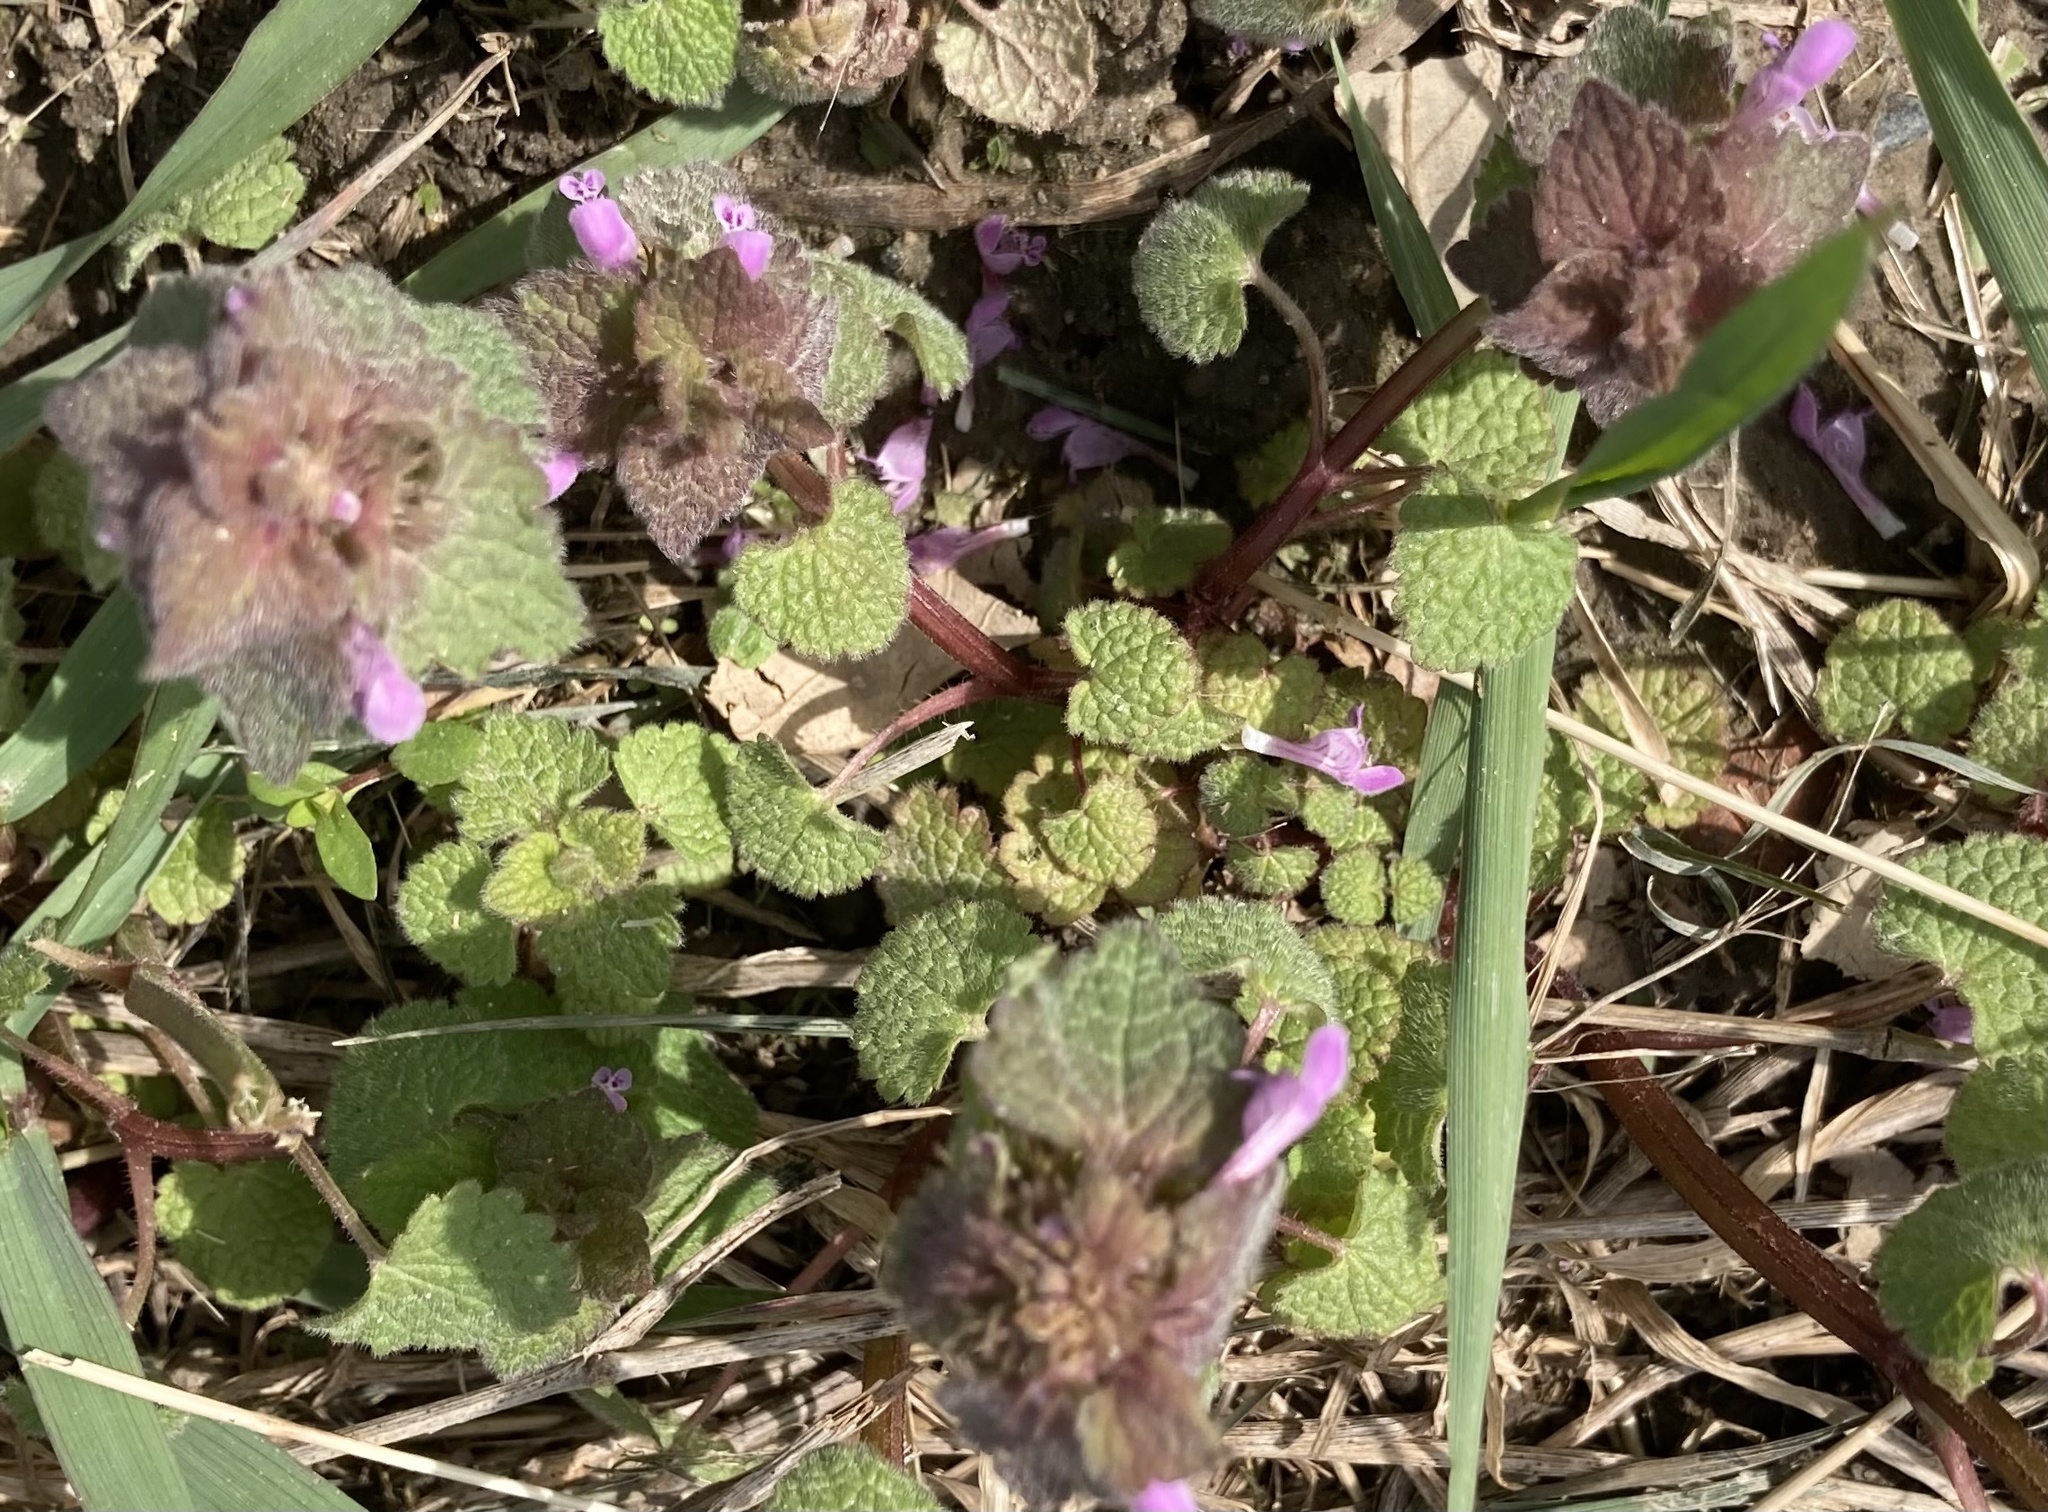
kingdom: Plantae
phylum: Tracheophyta
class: Magnoliopsida
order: Lamiales
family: Lamiaceae
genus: Lamium
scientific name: Lamium purpureum
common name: Red dead-nettle
